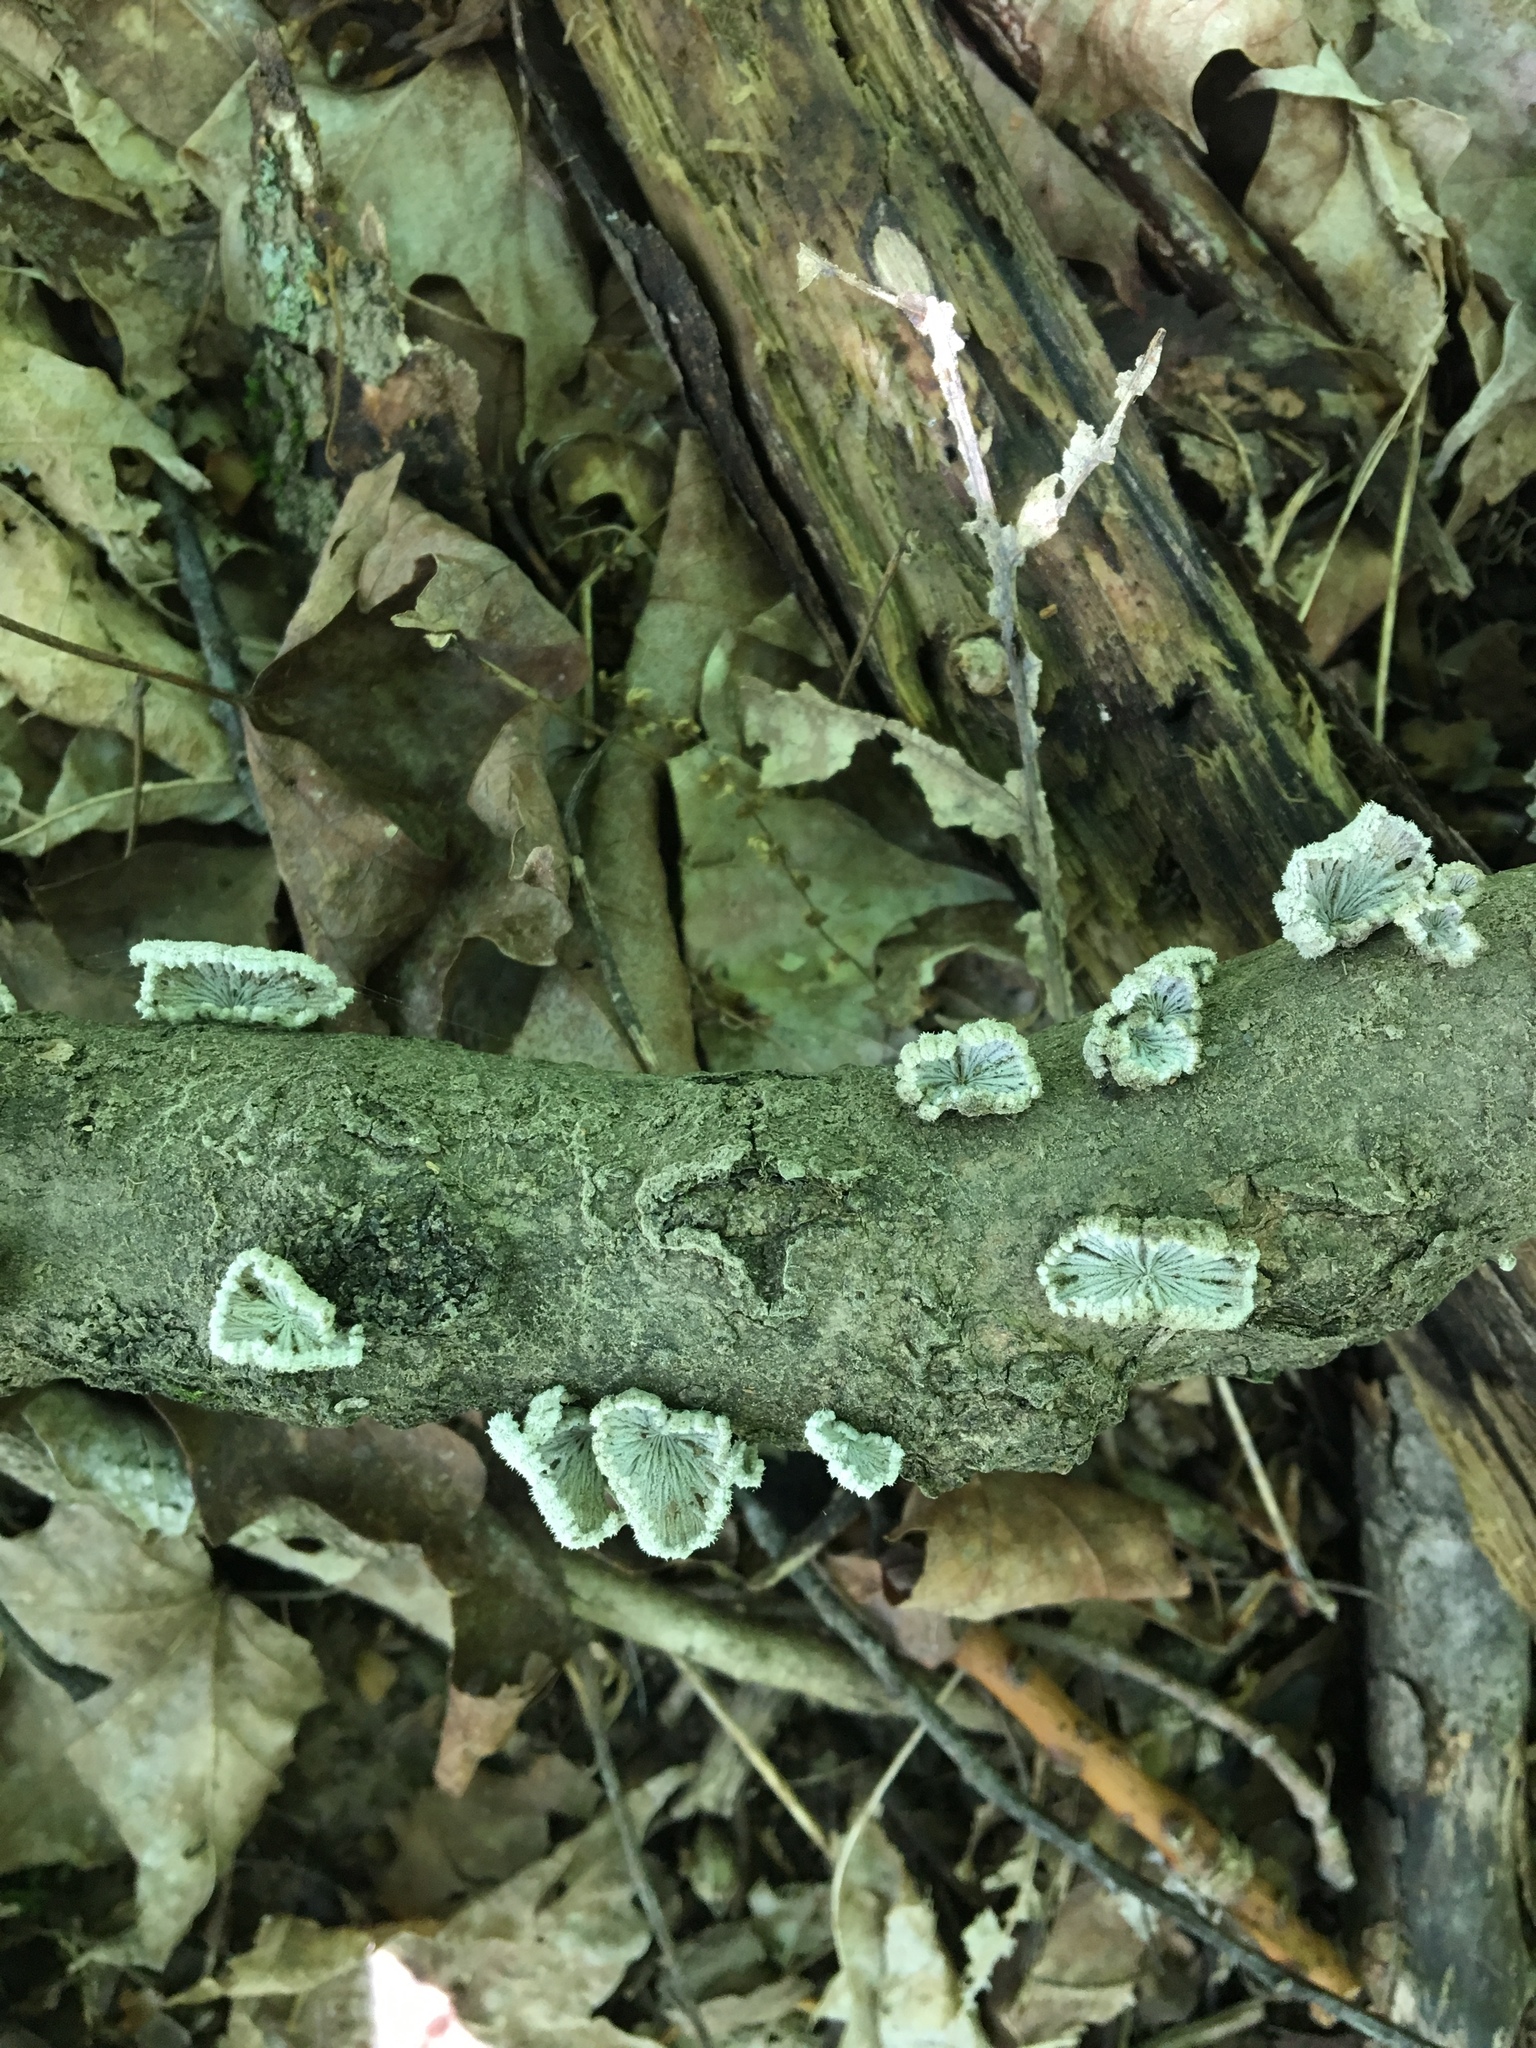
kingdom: Fungi
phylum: Basidiomycota
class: Agaricomycetes
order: Agaricales
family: Schizophyllaceae
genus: Schizophyllum
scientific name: Schizophyllum commune
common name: Common porecrust
